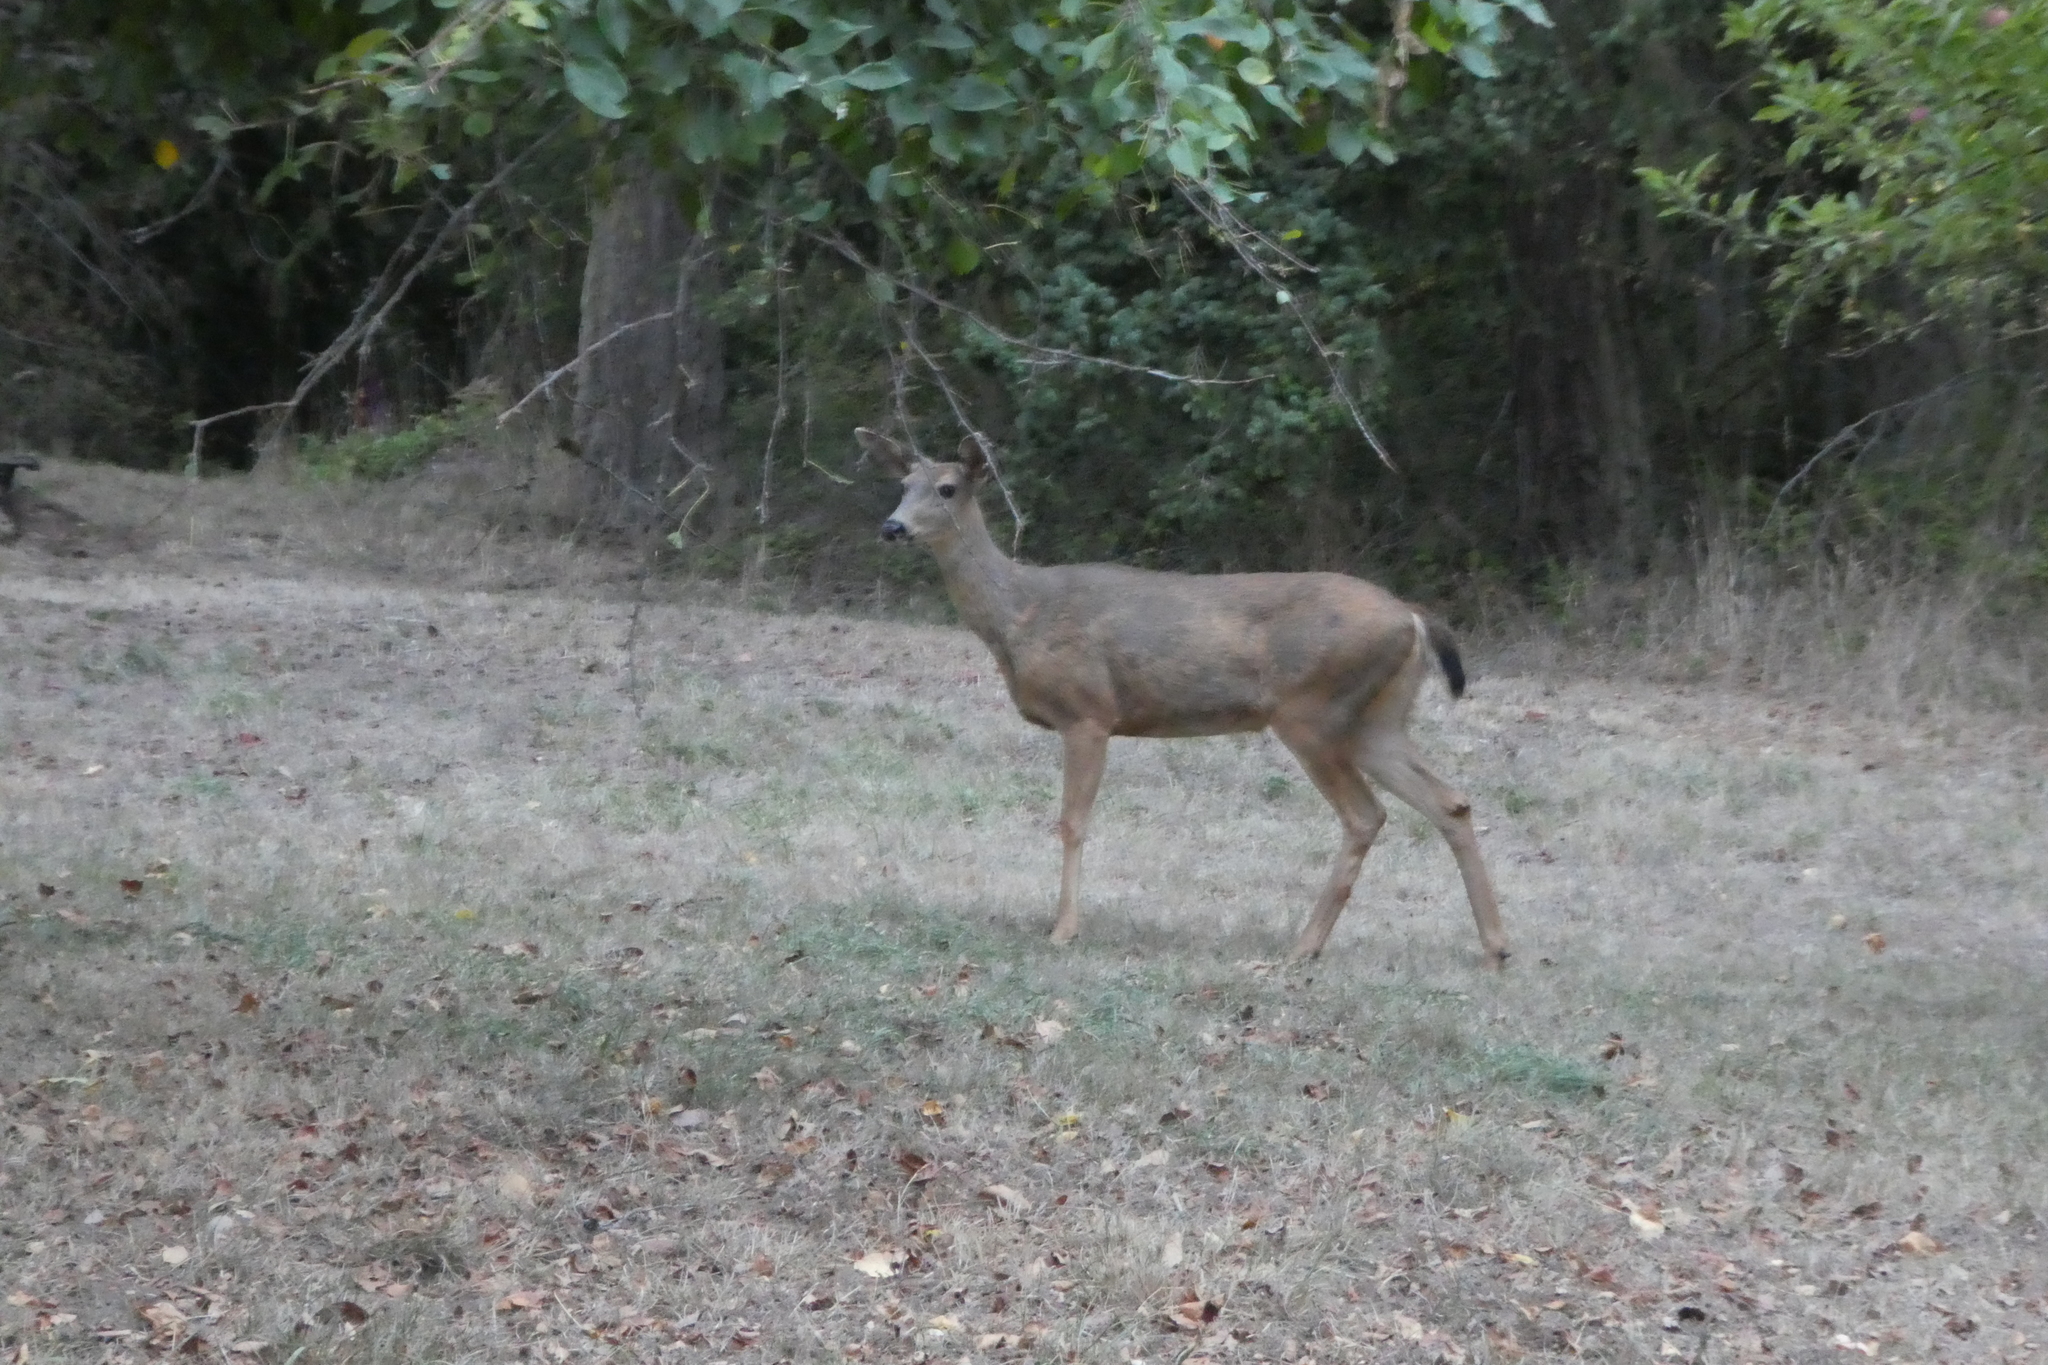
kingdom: Animalia
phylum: Chordata
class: Mammalia
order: Artiodactyla
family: Cervidae
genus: Odocoileus
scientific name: Odocoileus hemionus
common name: Mule deer
